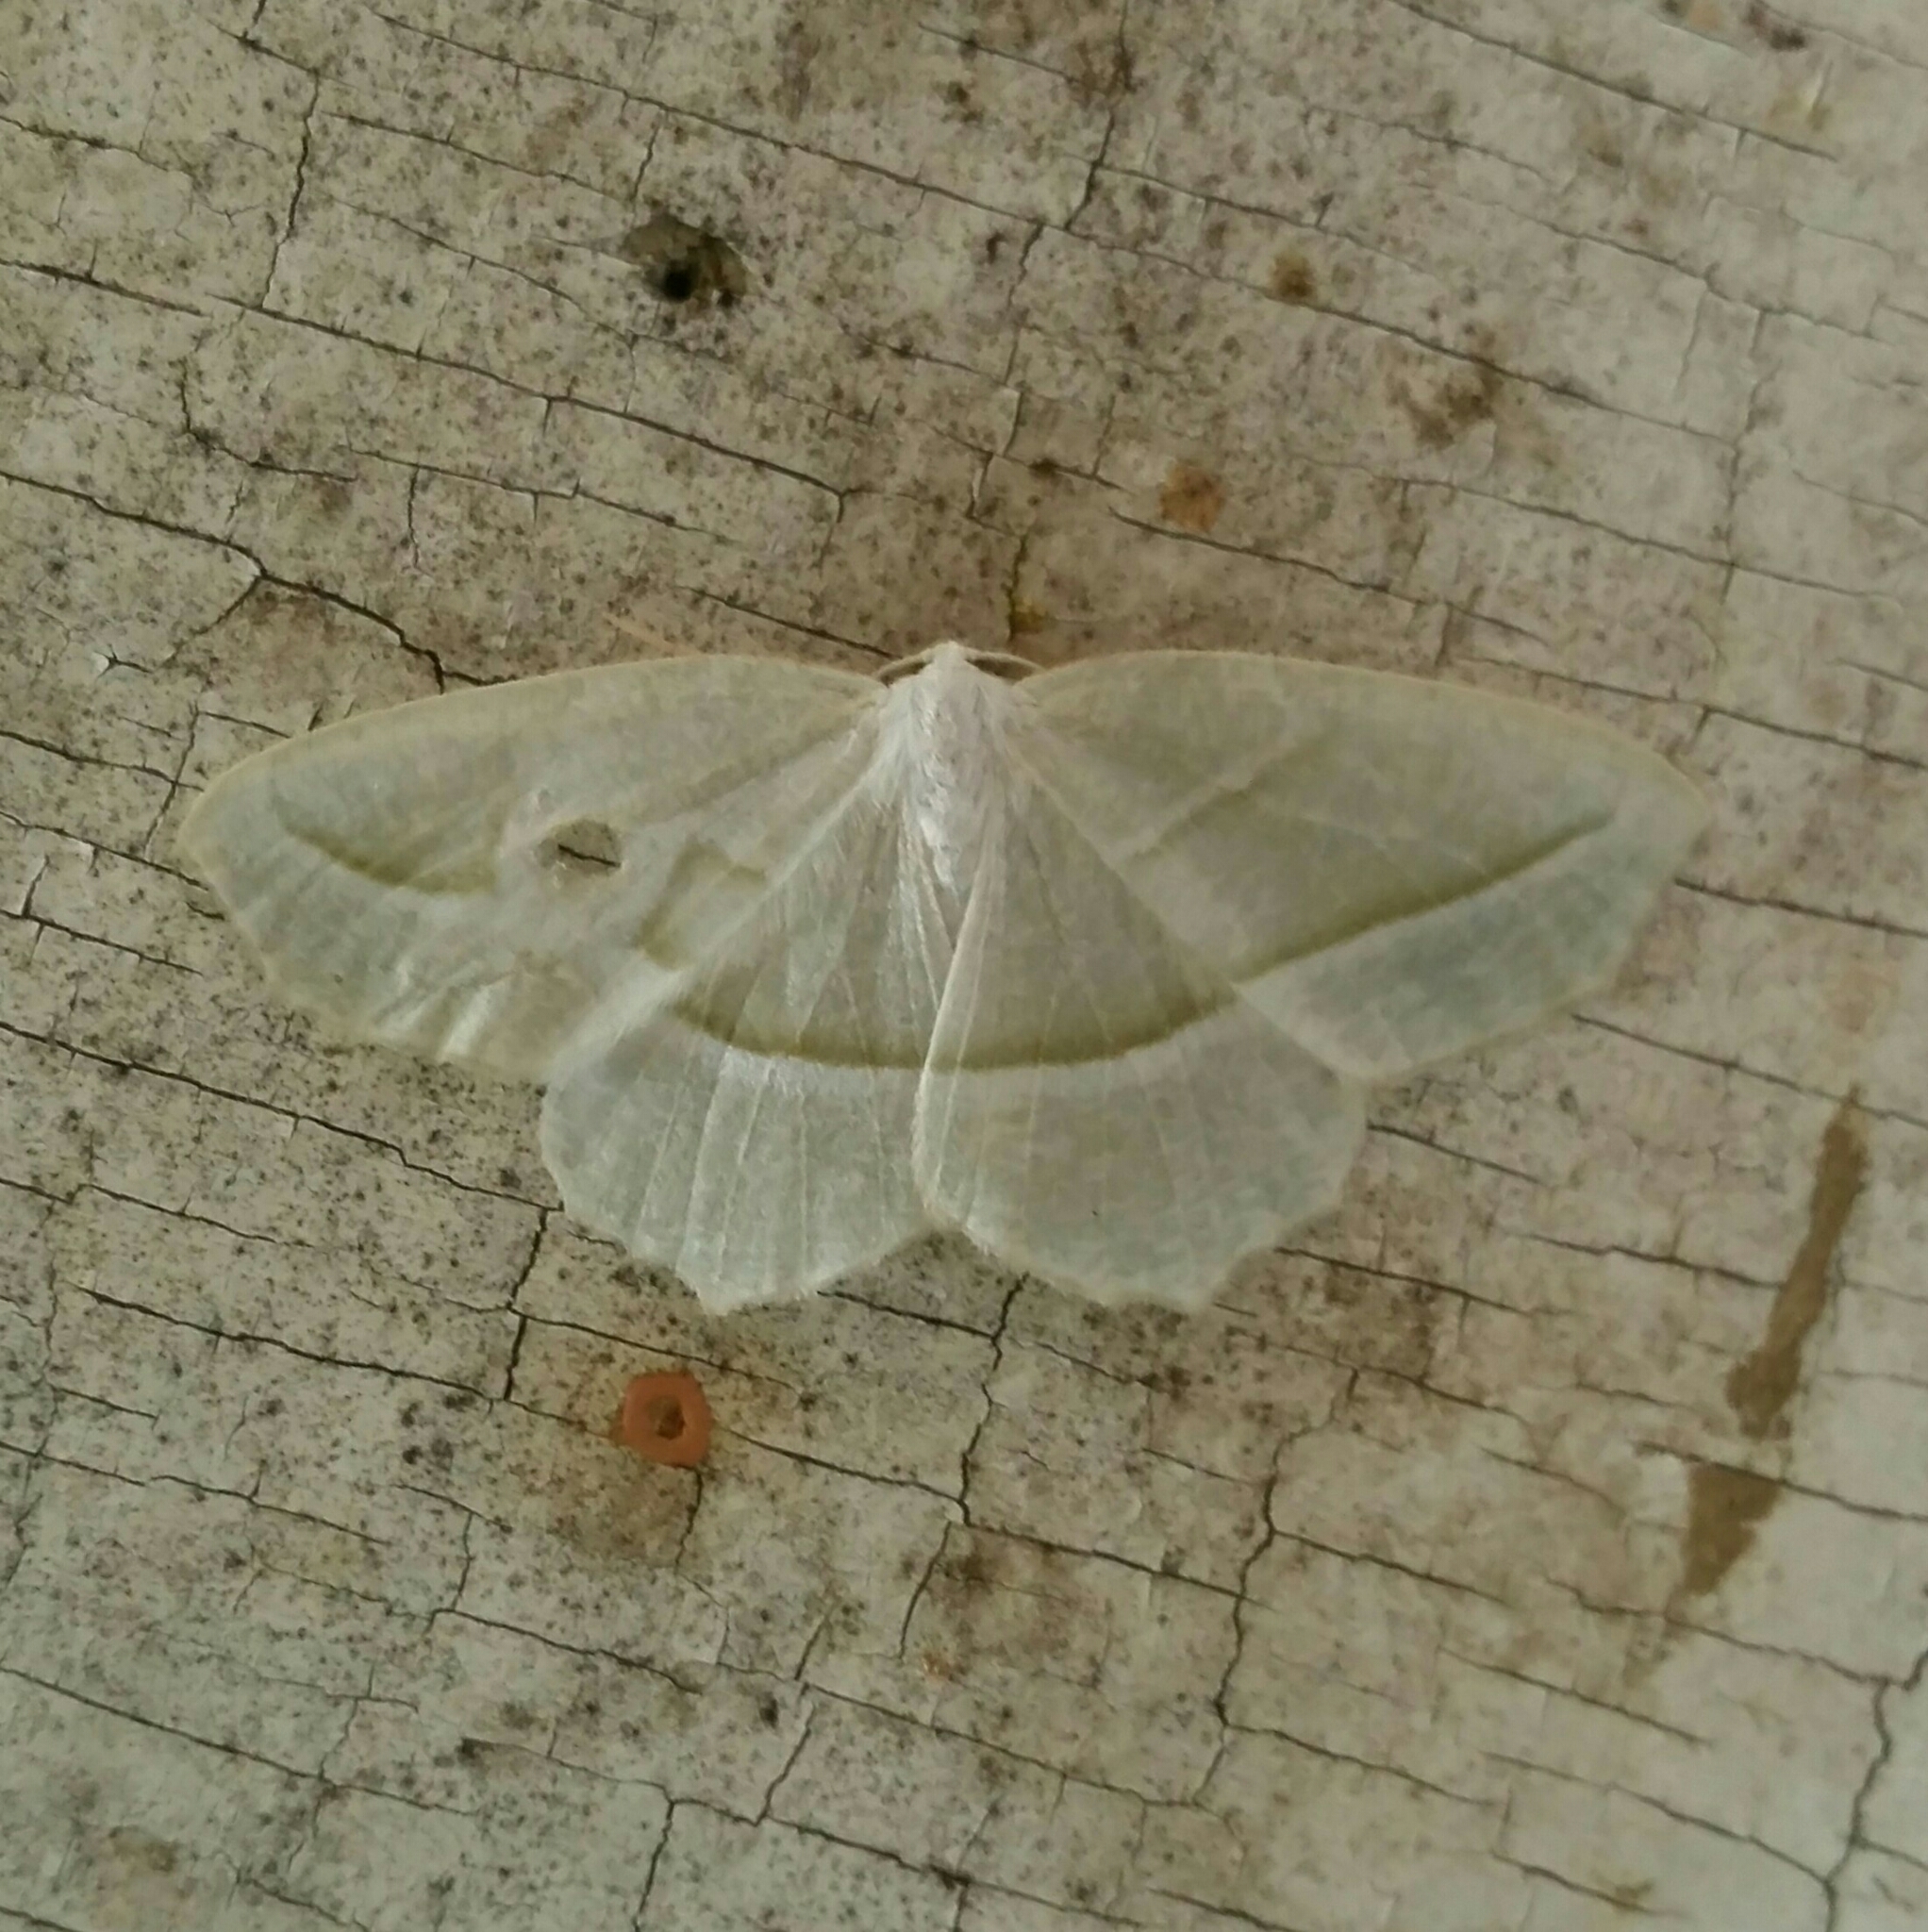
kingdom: Animalia
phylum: Arthropoda
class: Insecta
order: Lepidoptera
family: Geometridae
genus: Campaea
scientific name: Campaea perlata
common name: Fringed looper
